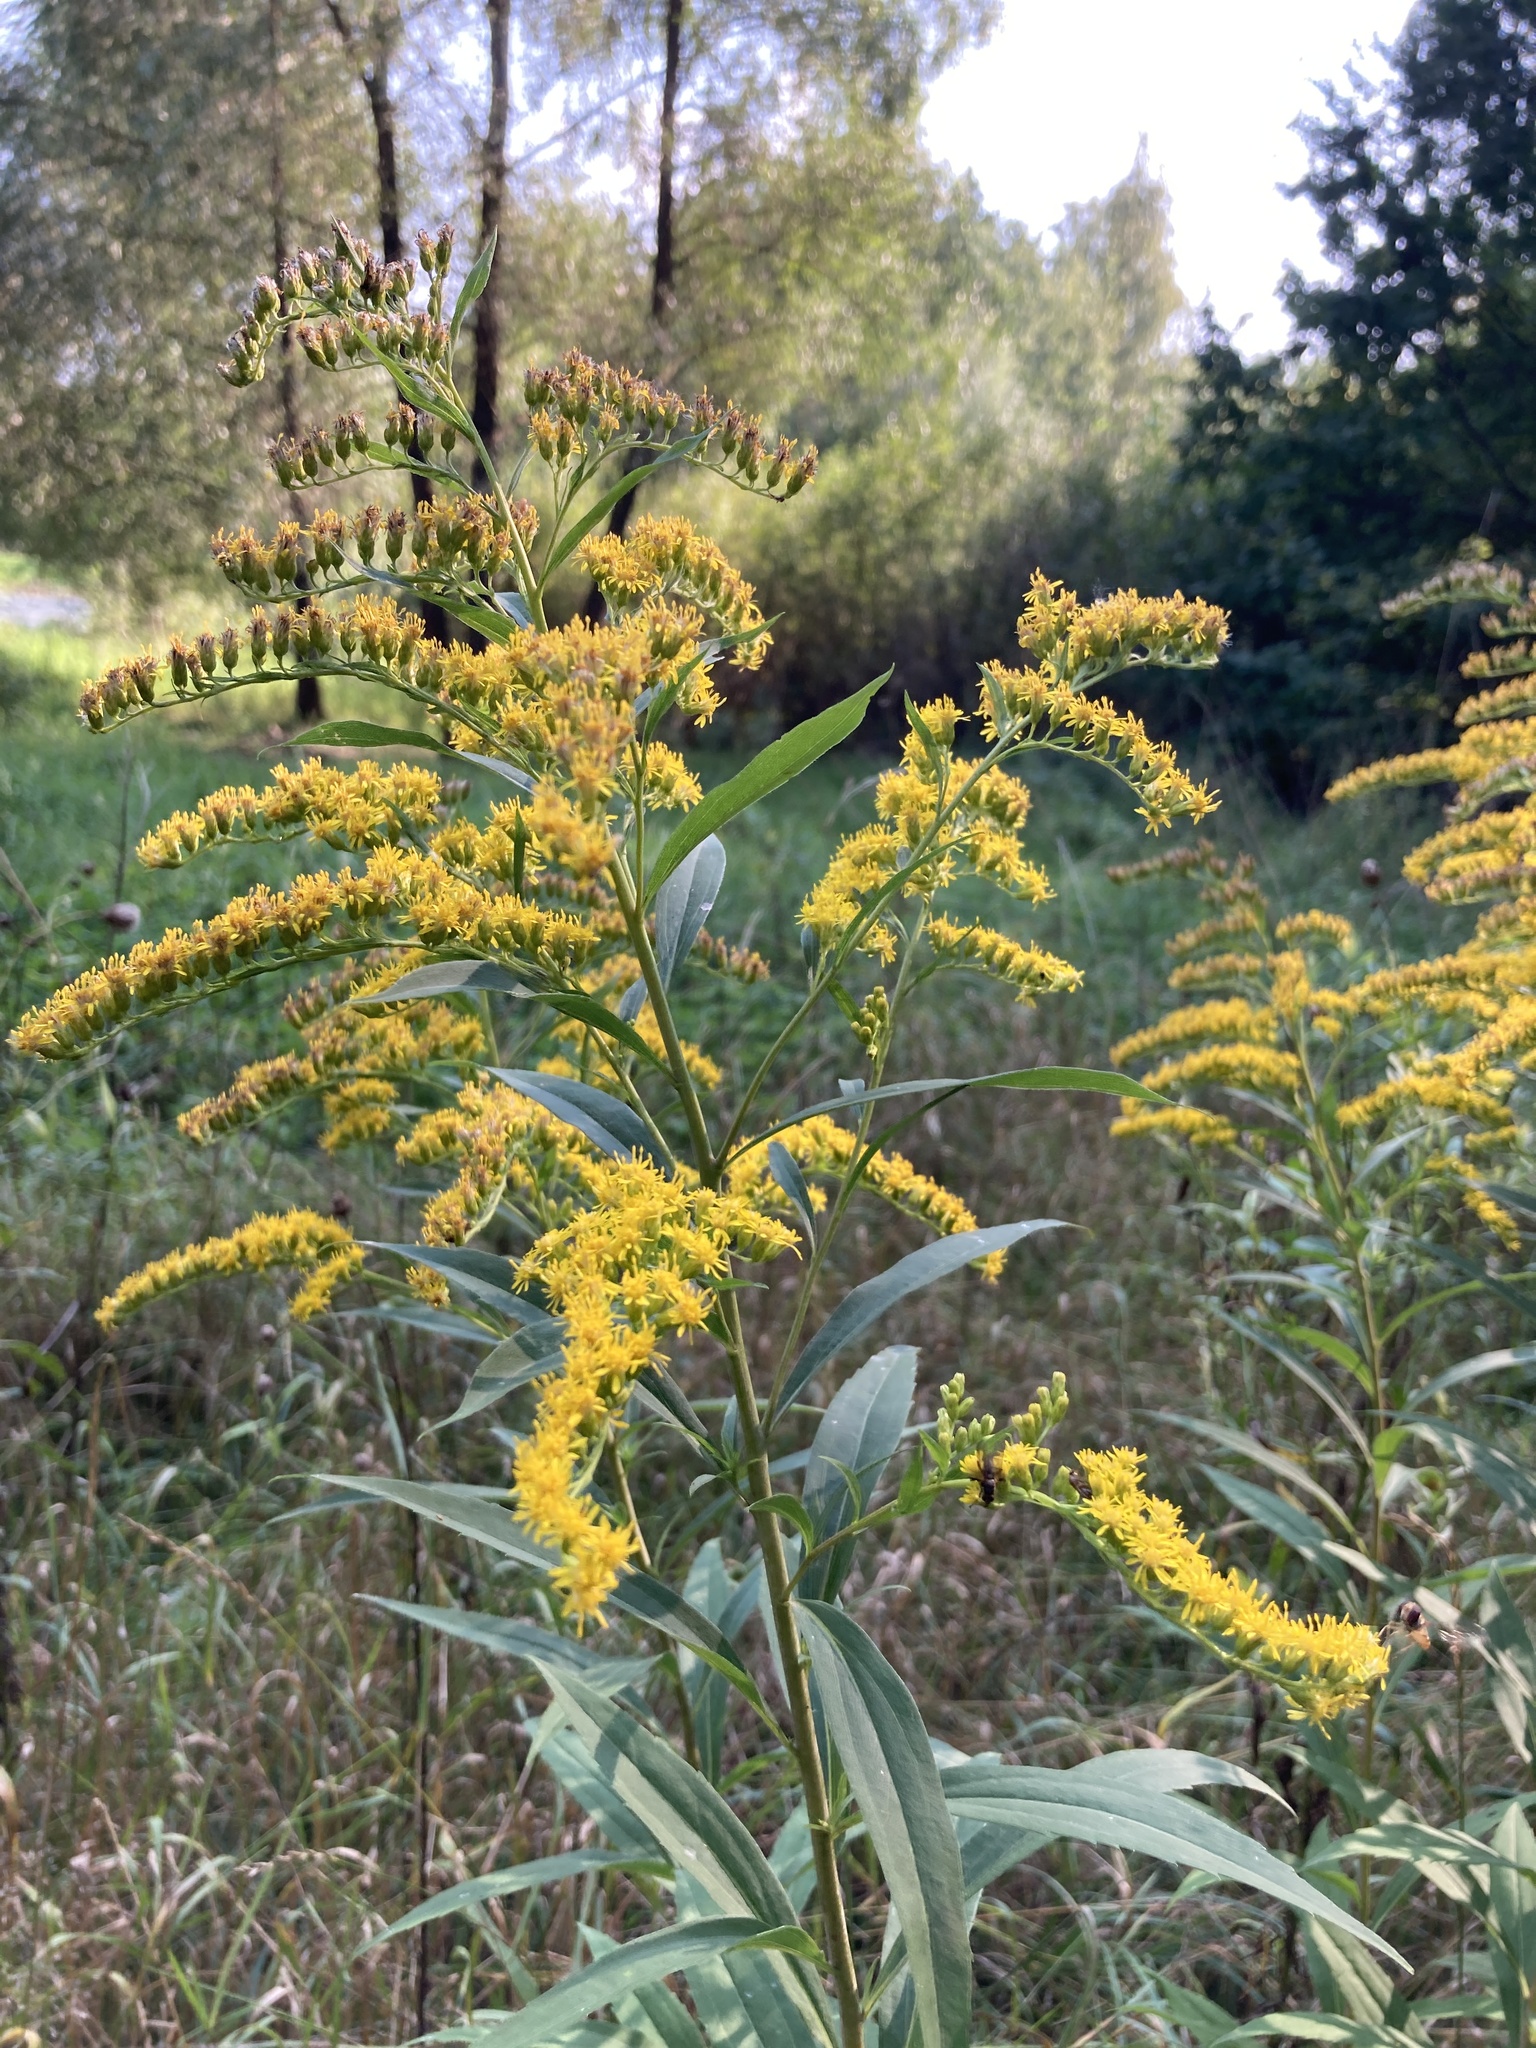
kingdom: Plantae
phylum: Tracheophyta
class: Magnoliopsida
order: Asterales
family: Asteraceae
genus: Solidago
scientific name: Solidago gigantea
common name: Giant goldenrod
